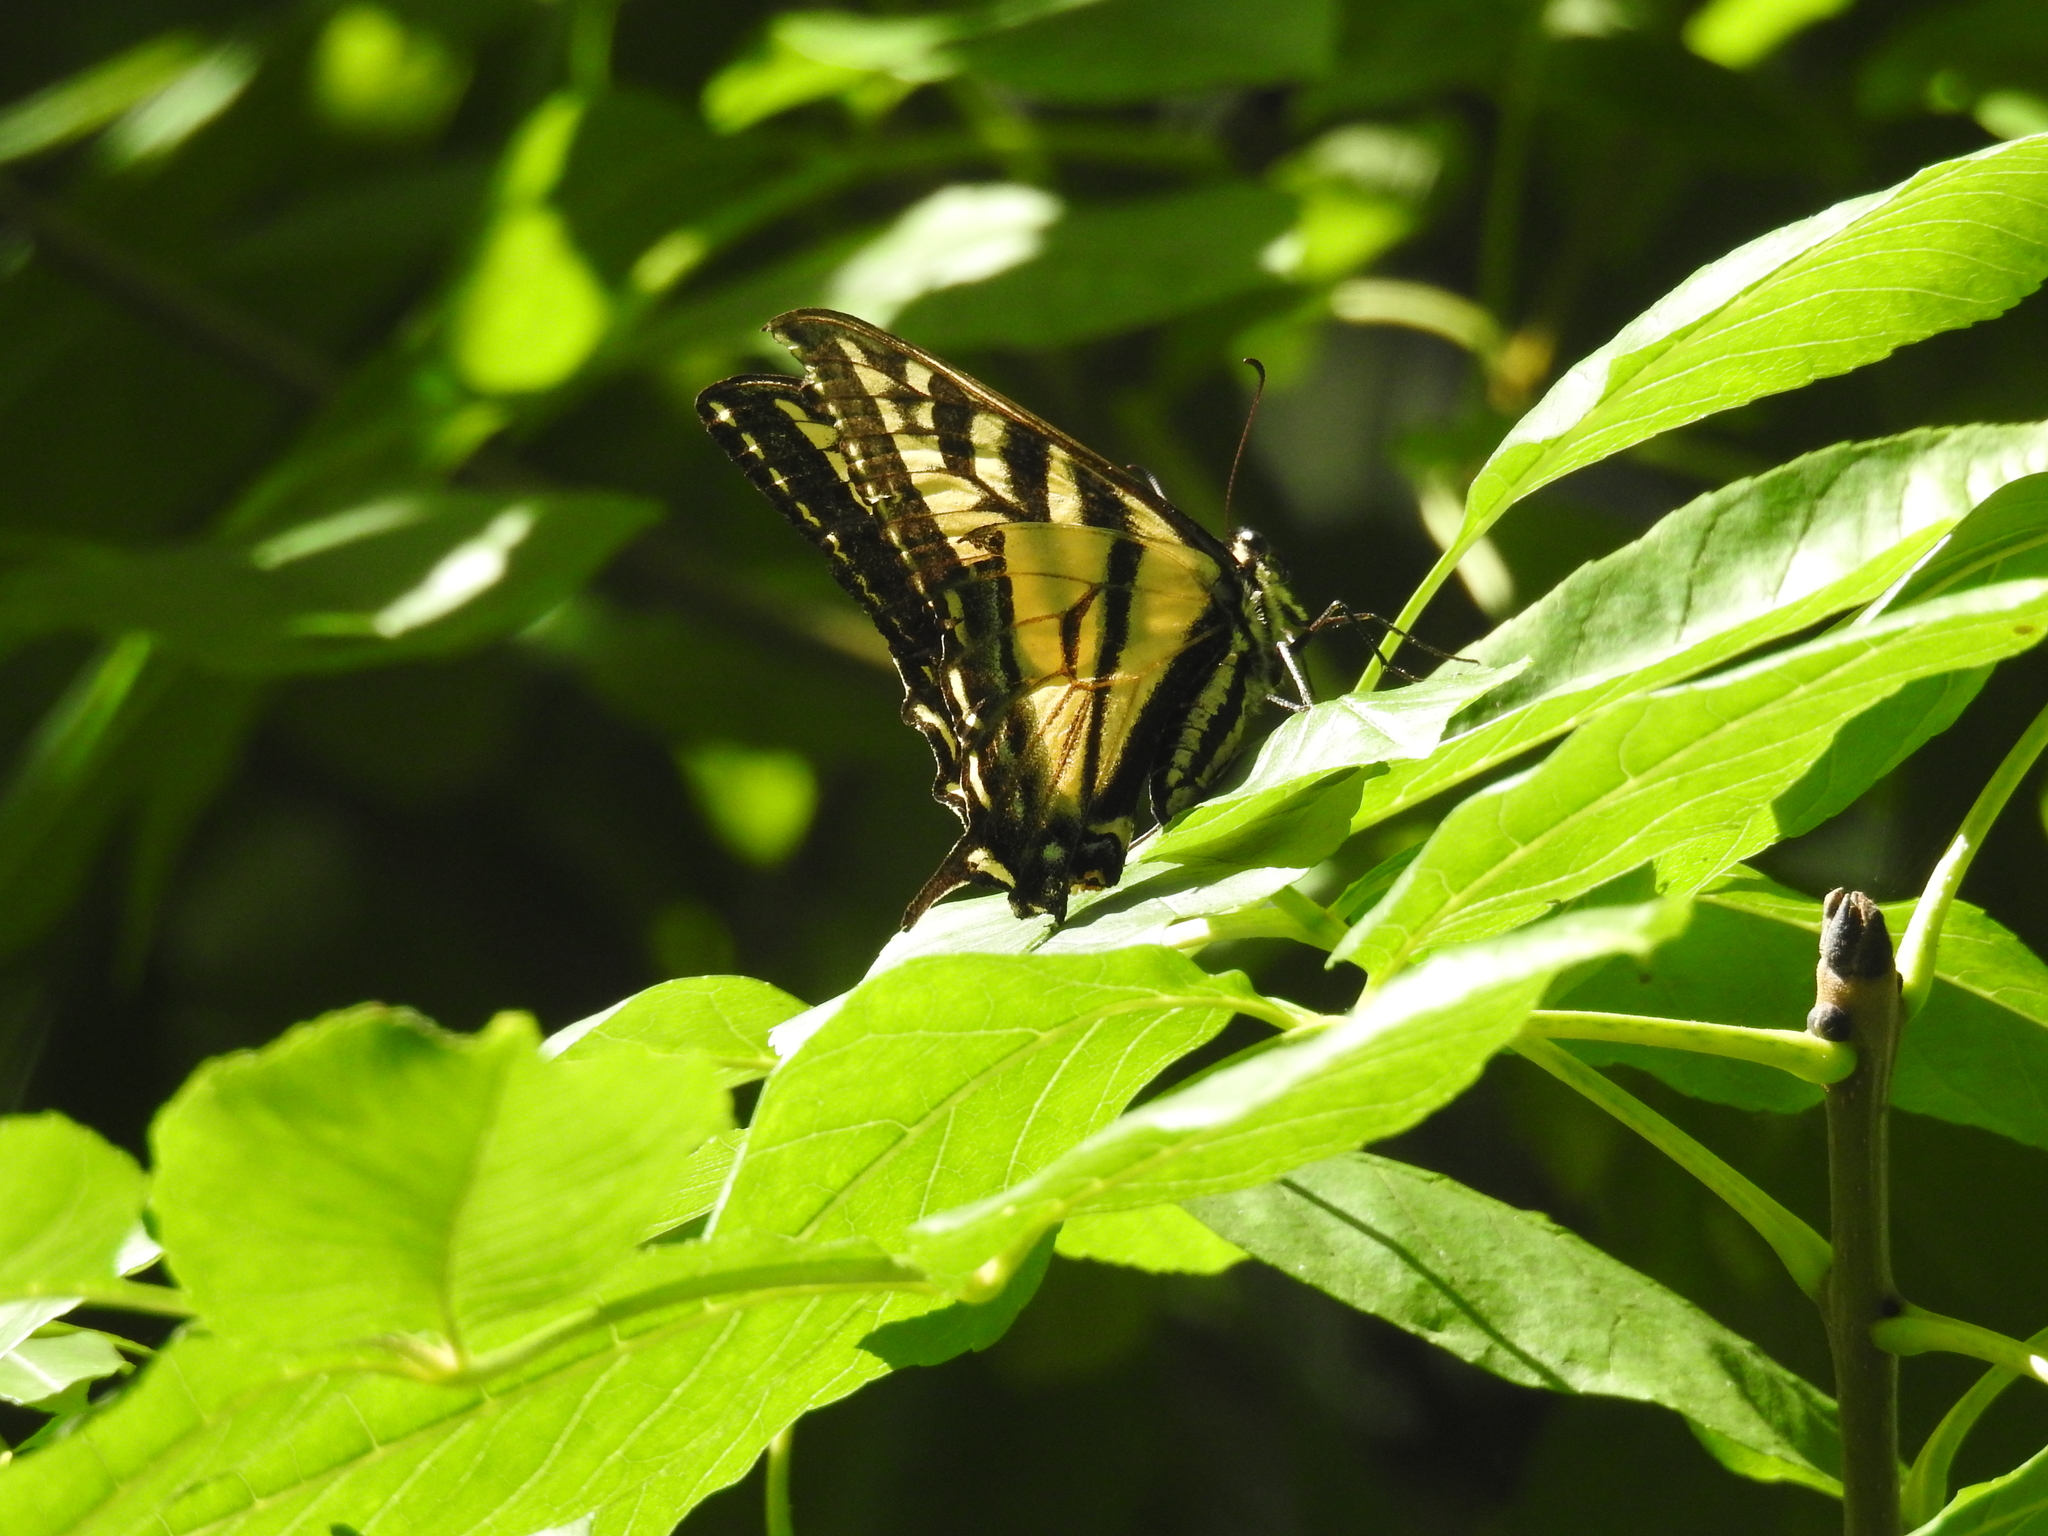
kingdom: Animalia
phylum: Arthropoda
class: Insecta
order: Lepidoptera
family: Papilionidae
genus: Papilio
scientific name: Papilio rutulus
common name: Western tiger swallowtail
